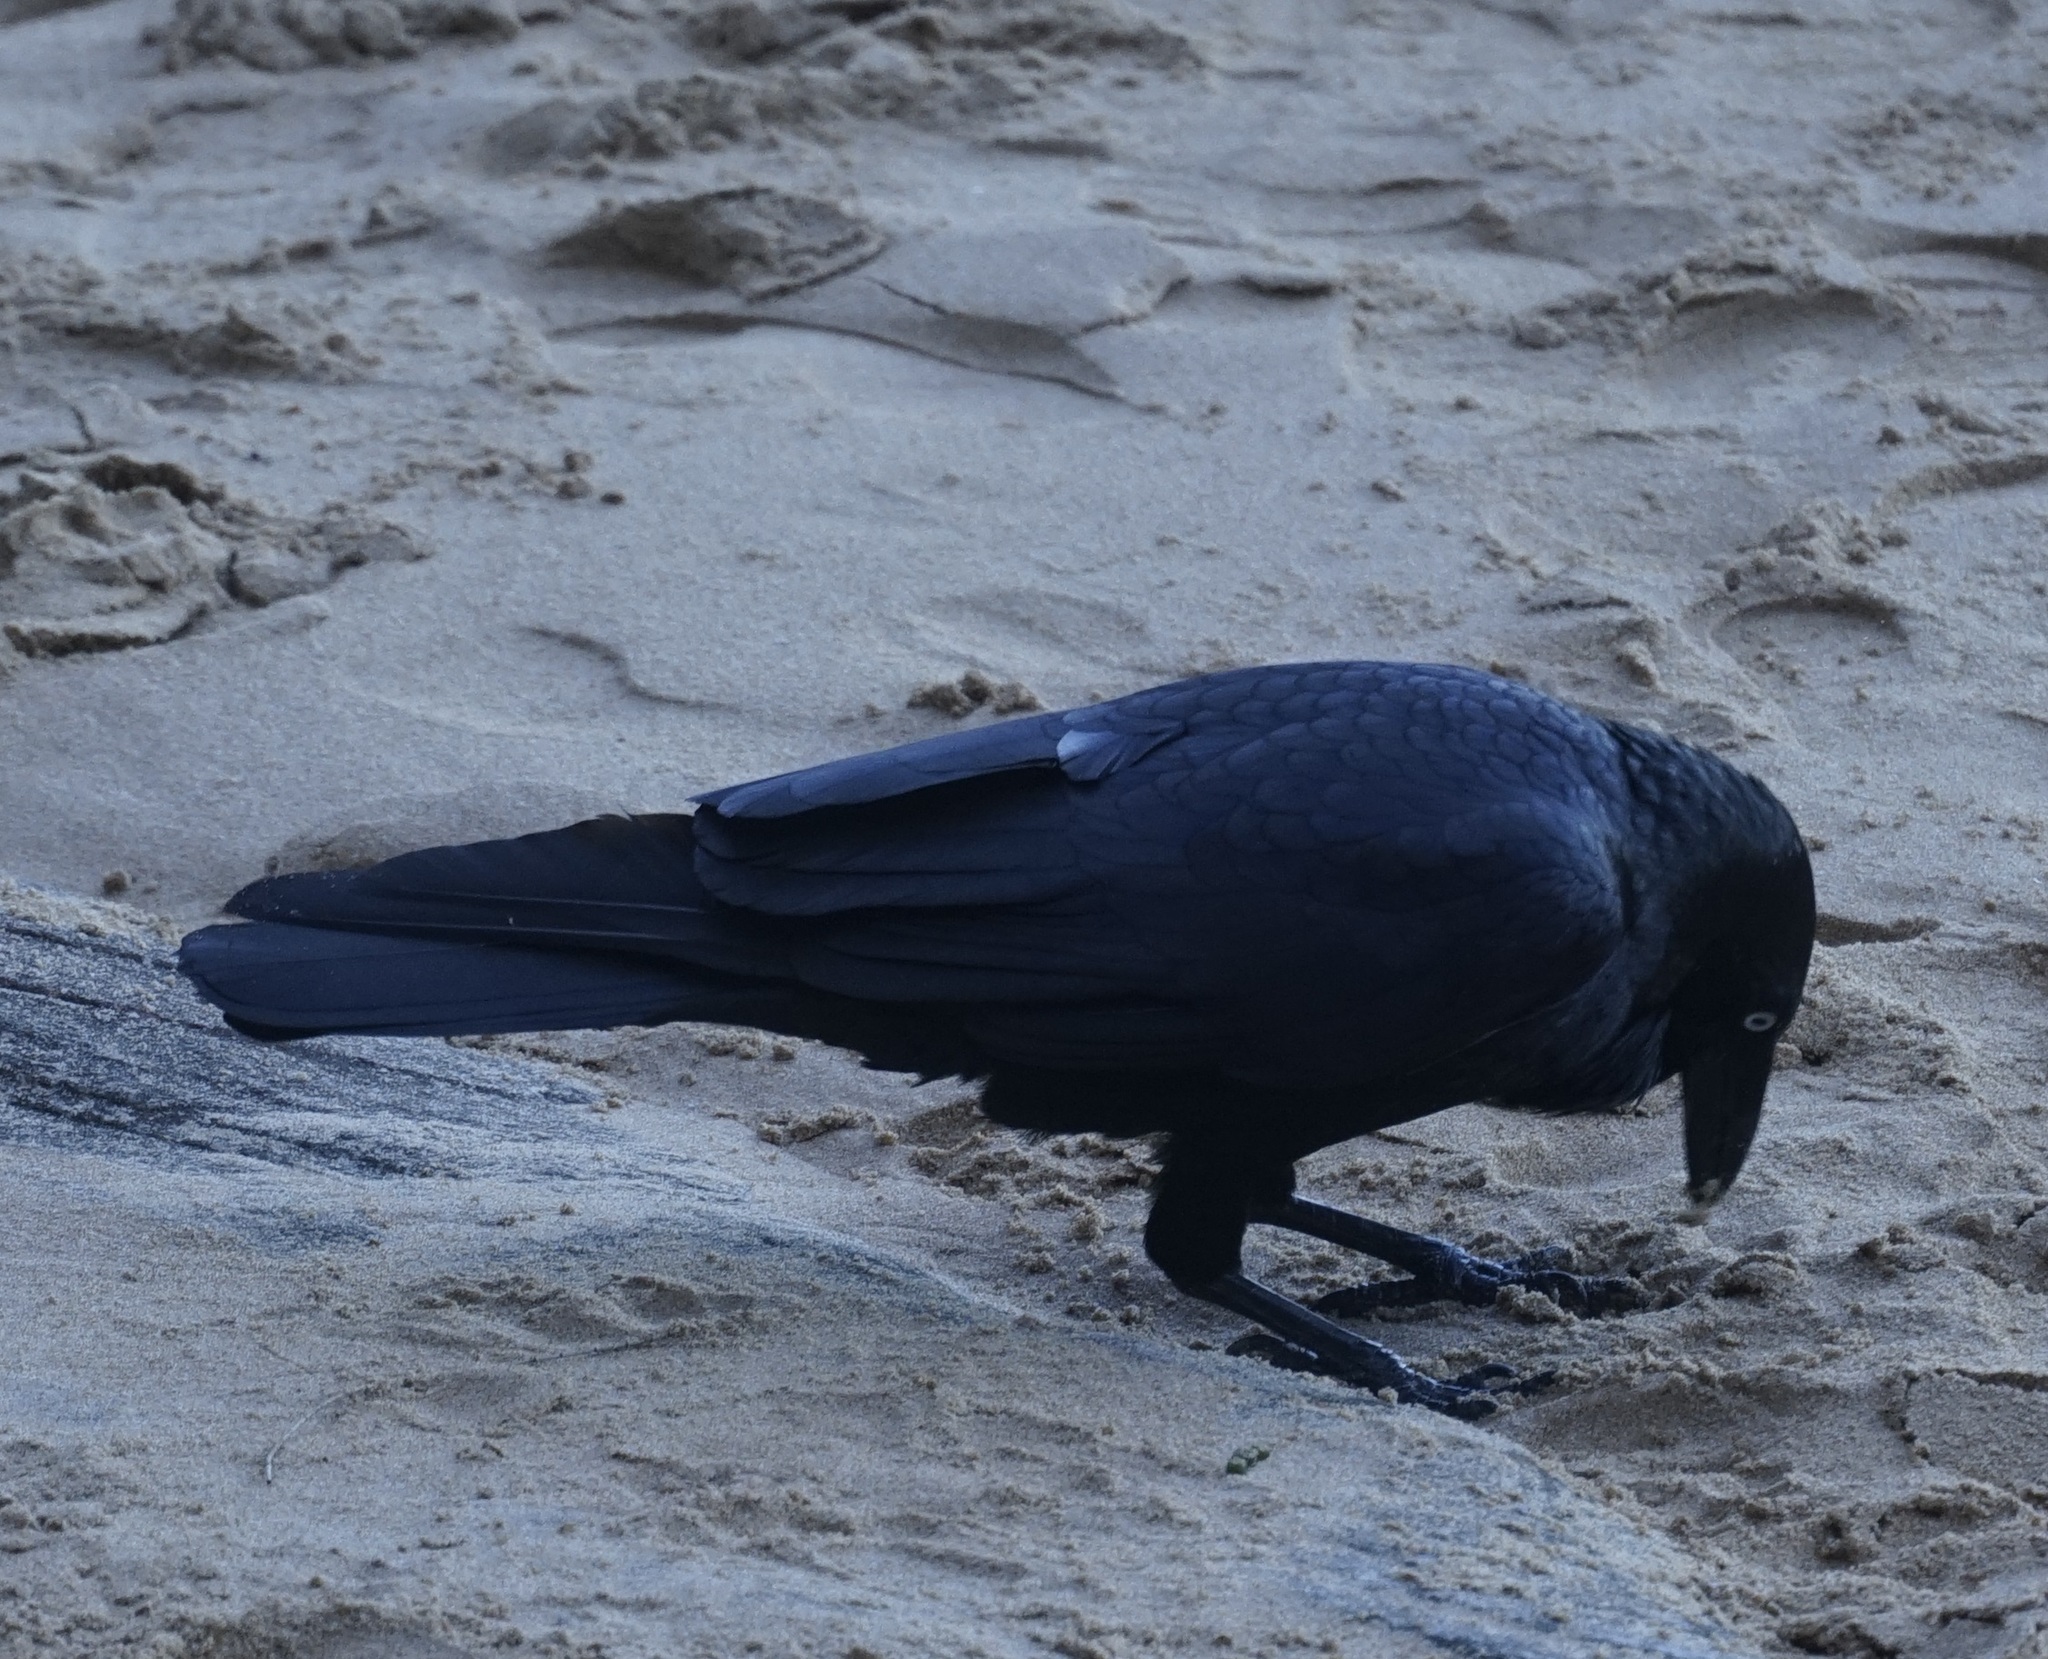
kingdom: Animalia
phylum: Chordata
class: Aves
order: Passeriformes
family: Corvidae
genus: Corvus
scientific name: Corvus coronoides
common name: Australian raven
